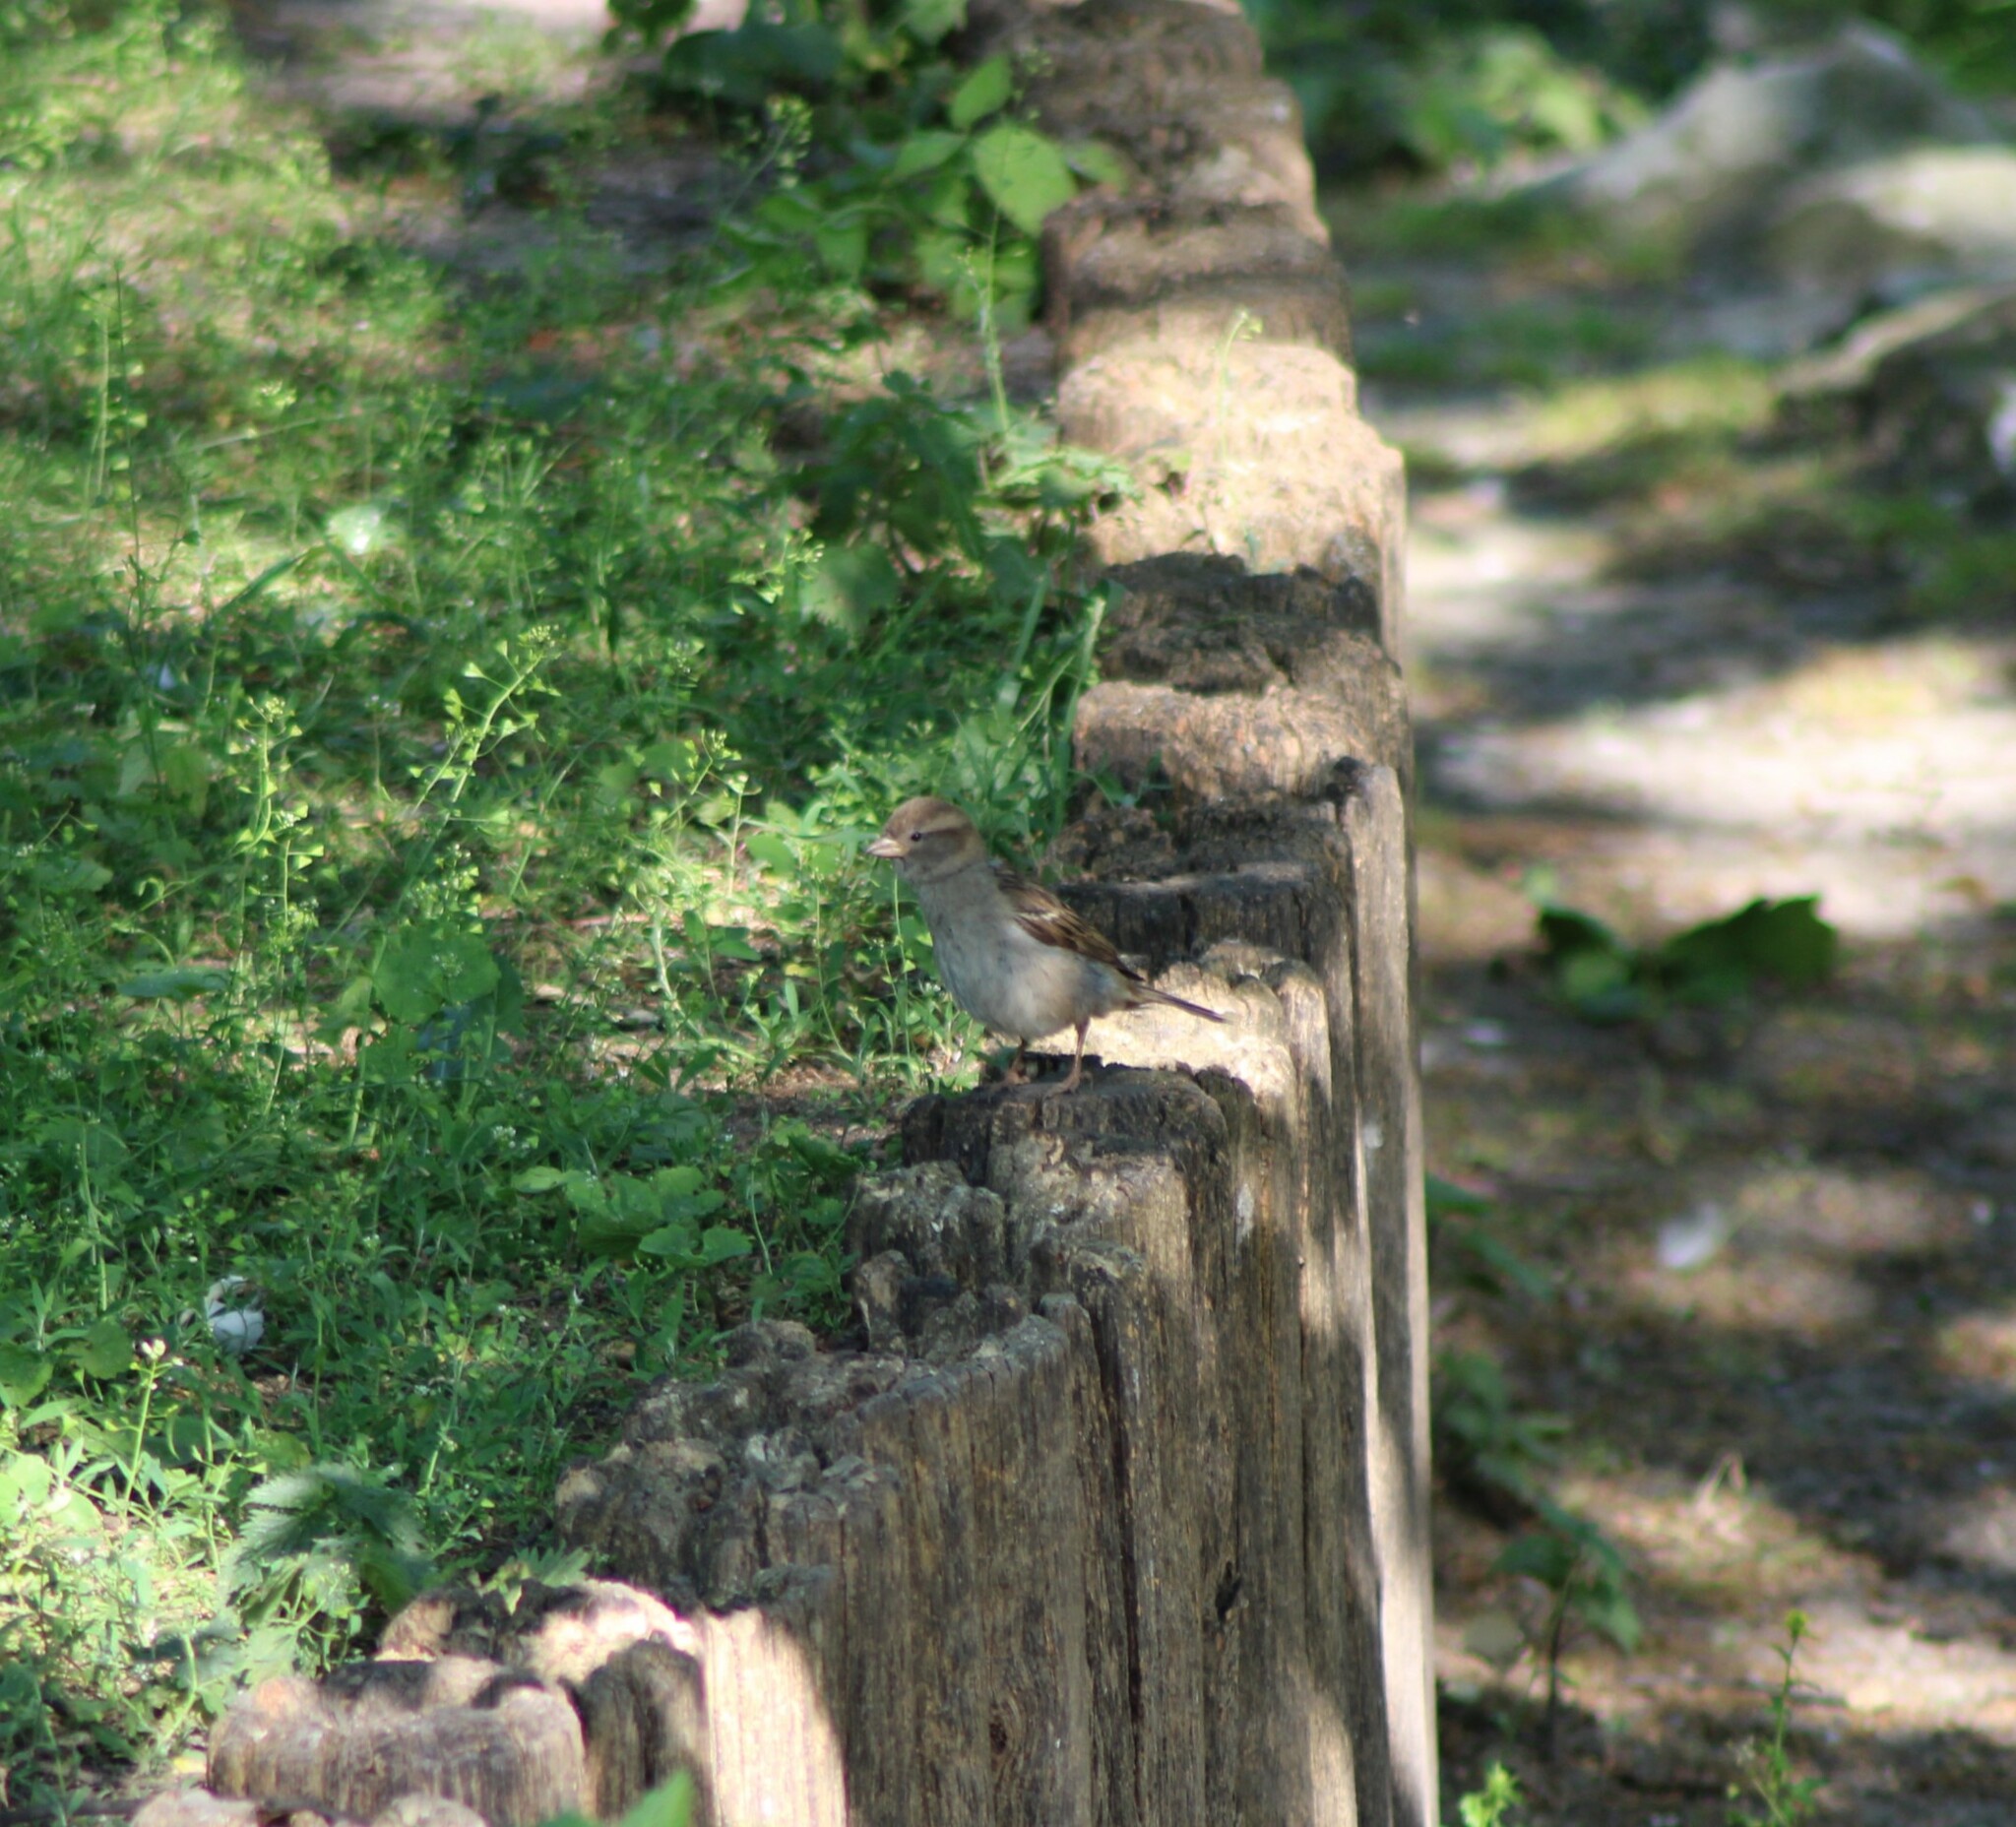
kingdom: Animalia
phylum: Chordata
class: Aves
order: Passeriformes
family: Passeridae
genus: Passer
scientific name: Passer domesticus
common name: House sparrow
